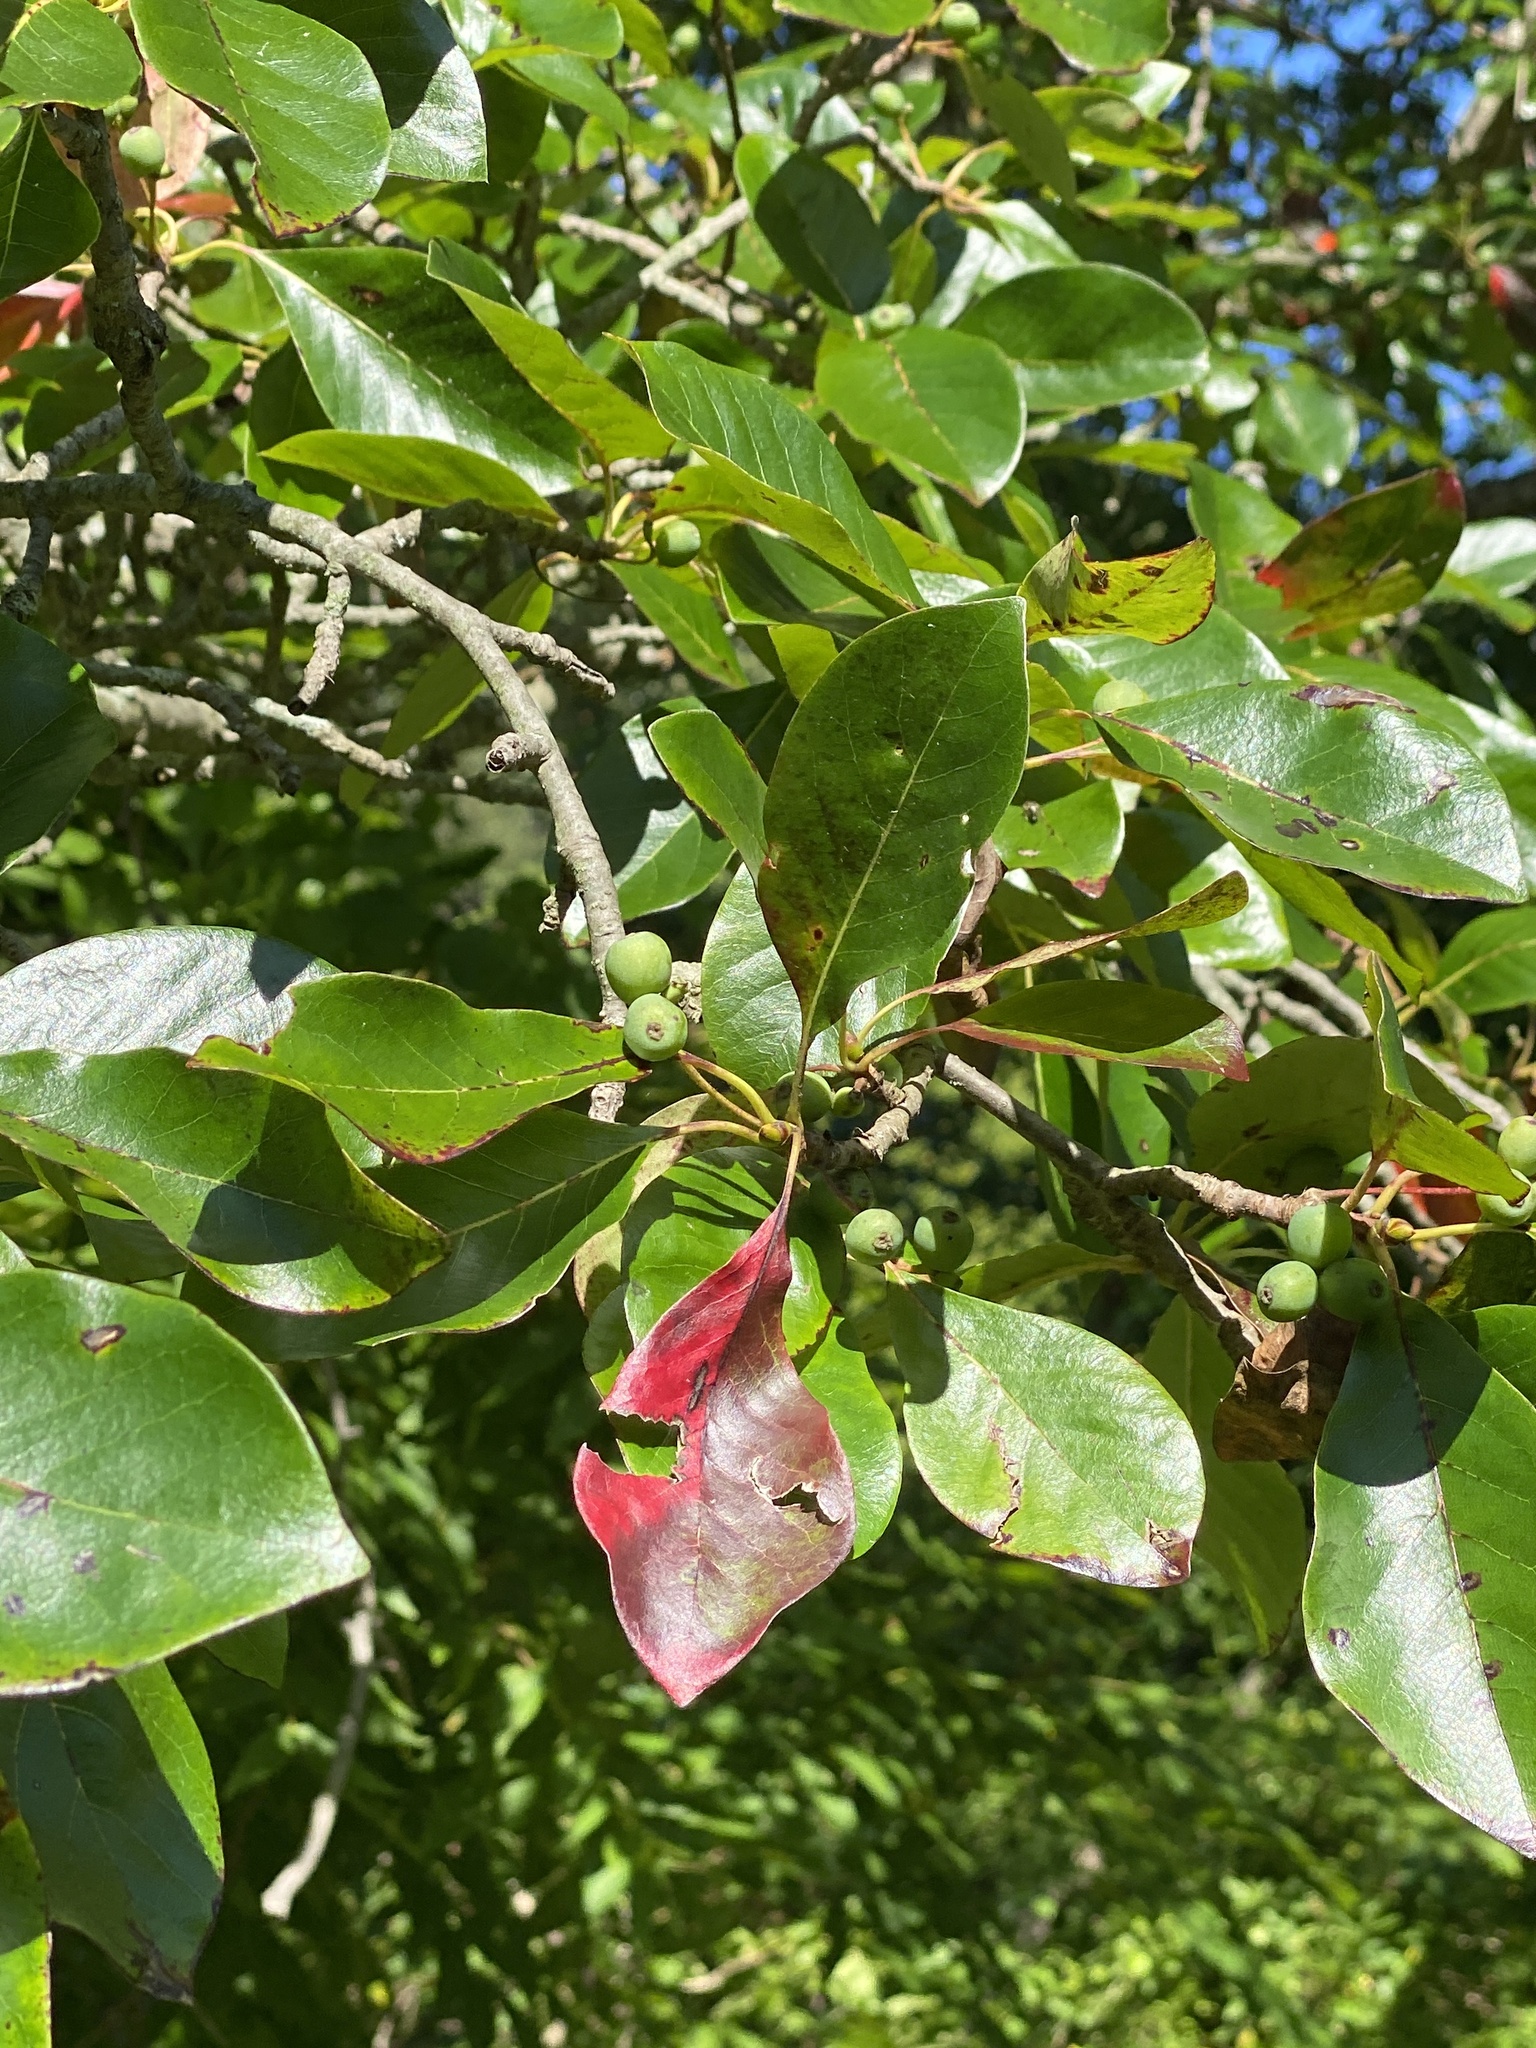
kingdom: Plantae
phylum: Tracheophyta
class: Magnoliopsida
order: Cornales
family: Nyssaceae
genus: Nyssa
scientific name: Nyssa sylvatica
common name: Black tupelo
